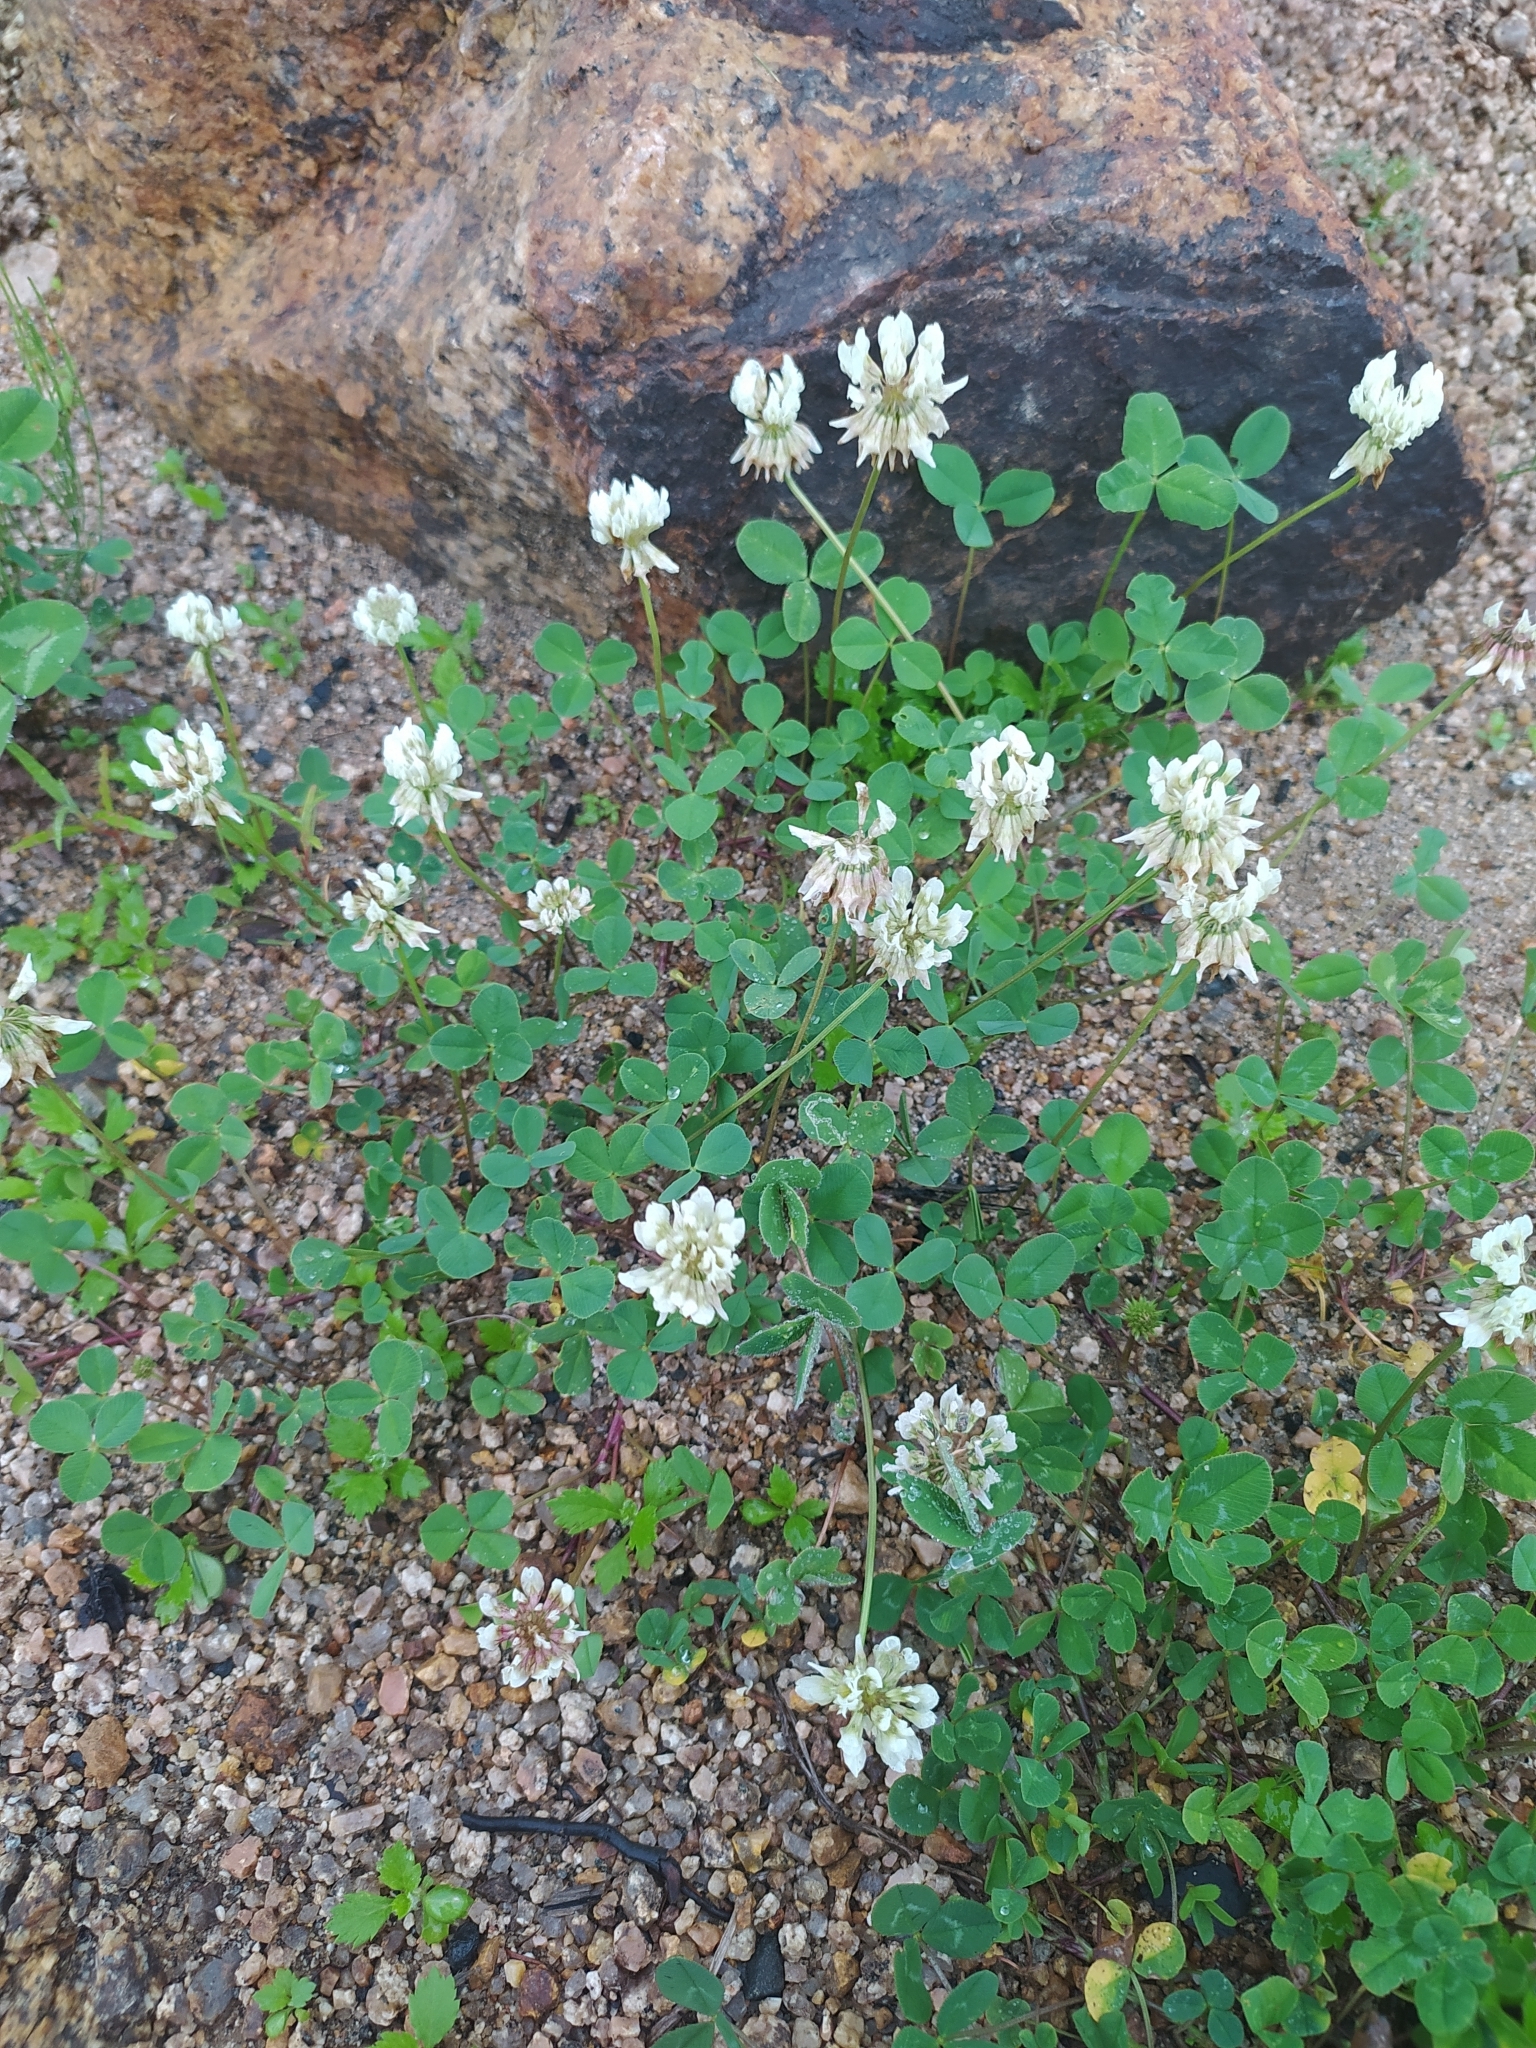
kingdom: Plantae
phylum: Tracheophyta
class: Magnoliopsida
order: Fabales
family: Fabaceae
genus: Trifolium
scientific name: Trifolium repens
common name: White clover
